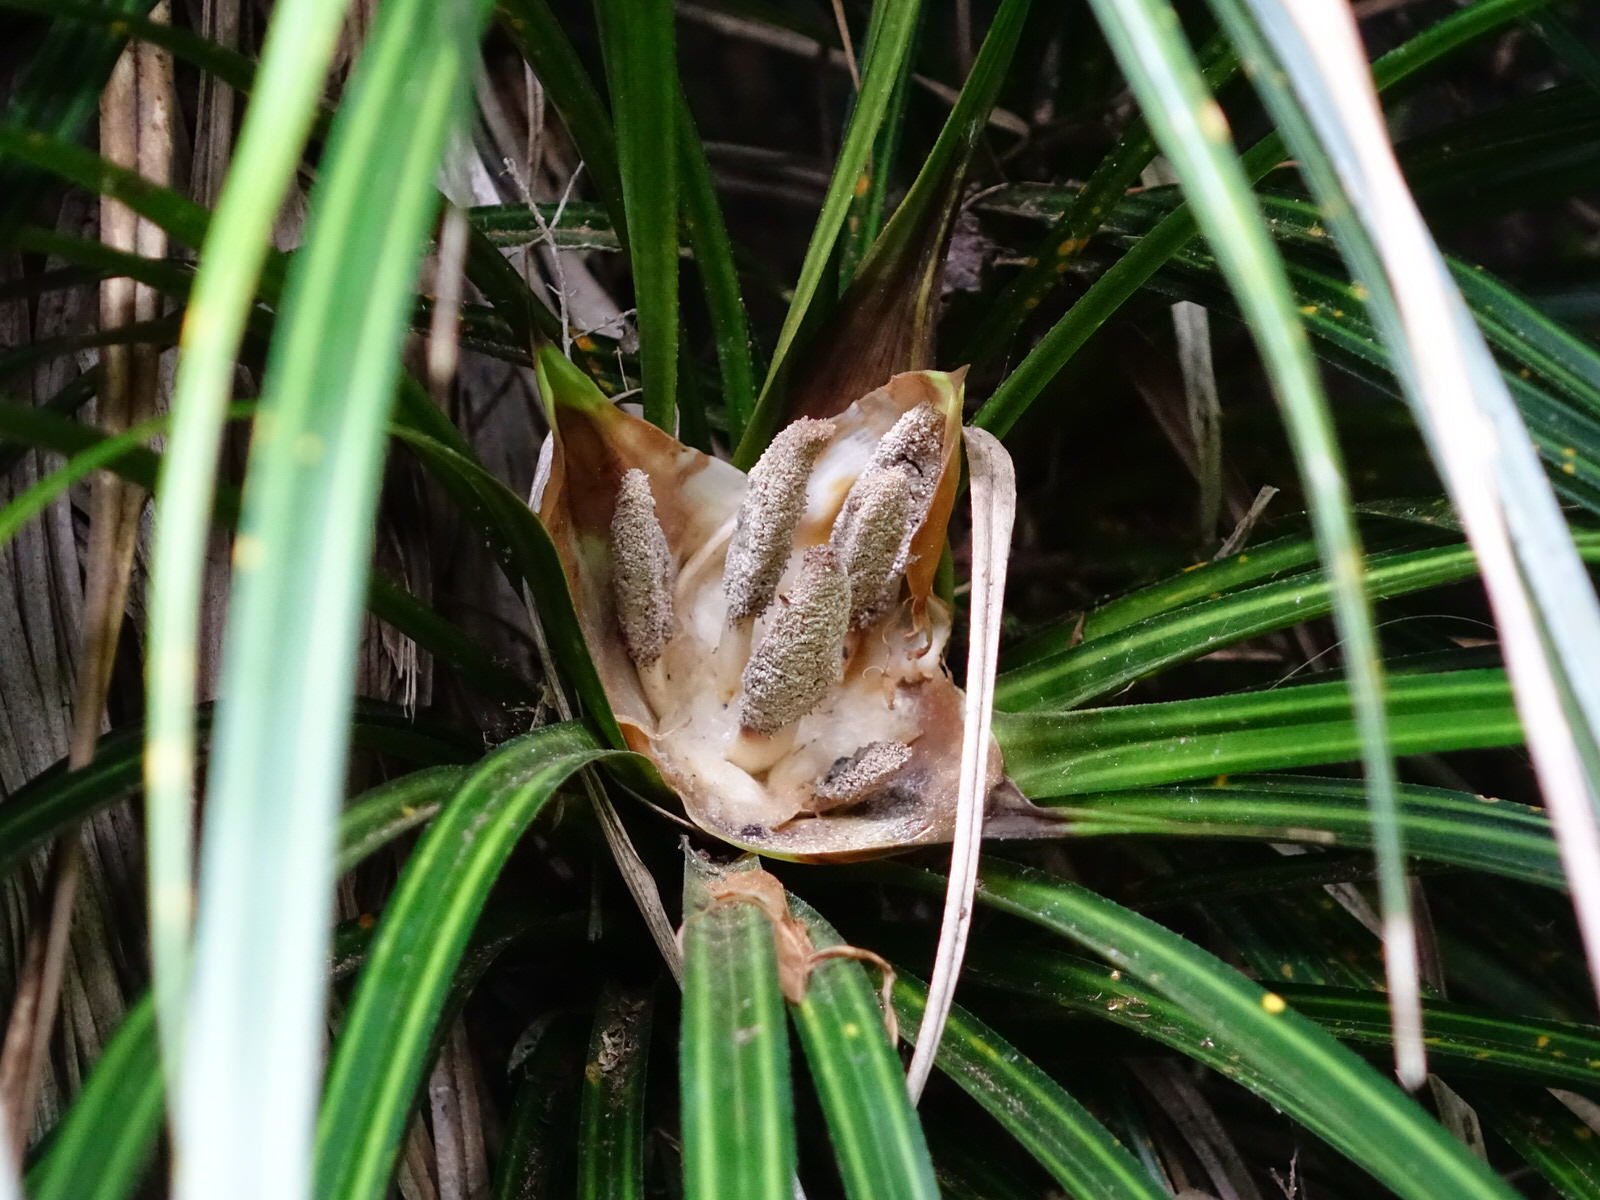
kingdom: Plantae
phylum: Tracheophyta
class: Liliopsida
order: Pandanales
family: Pandanaceae
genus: Freycinetia
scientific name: Freycinetia banksii
